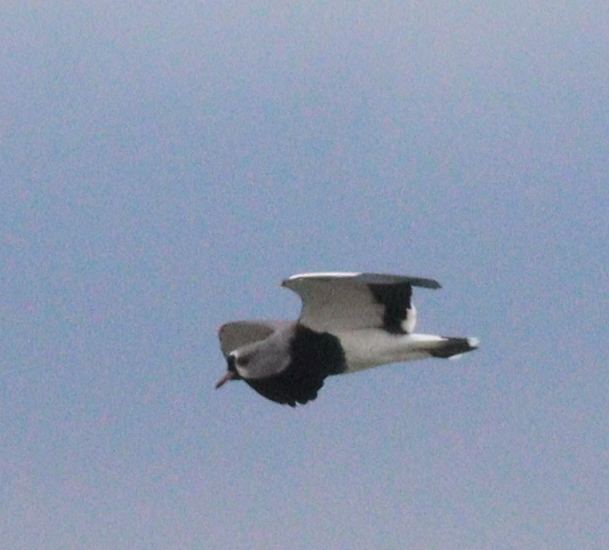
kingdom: Animalia
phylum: Chordata
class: Aves
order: Charadriiformes
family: Charadriidae
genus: Vanellus
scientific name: Vanellus chilensis
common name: Southern lapwing
